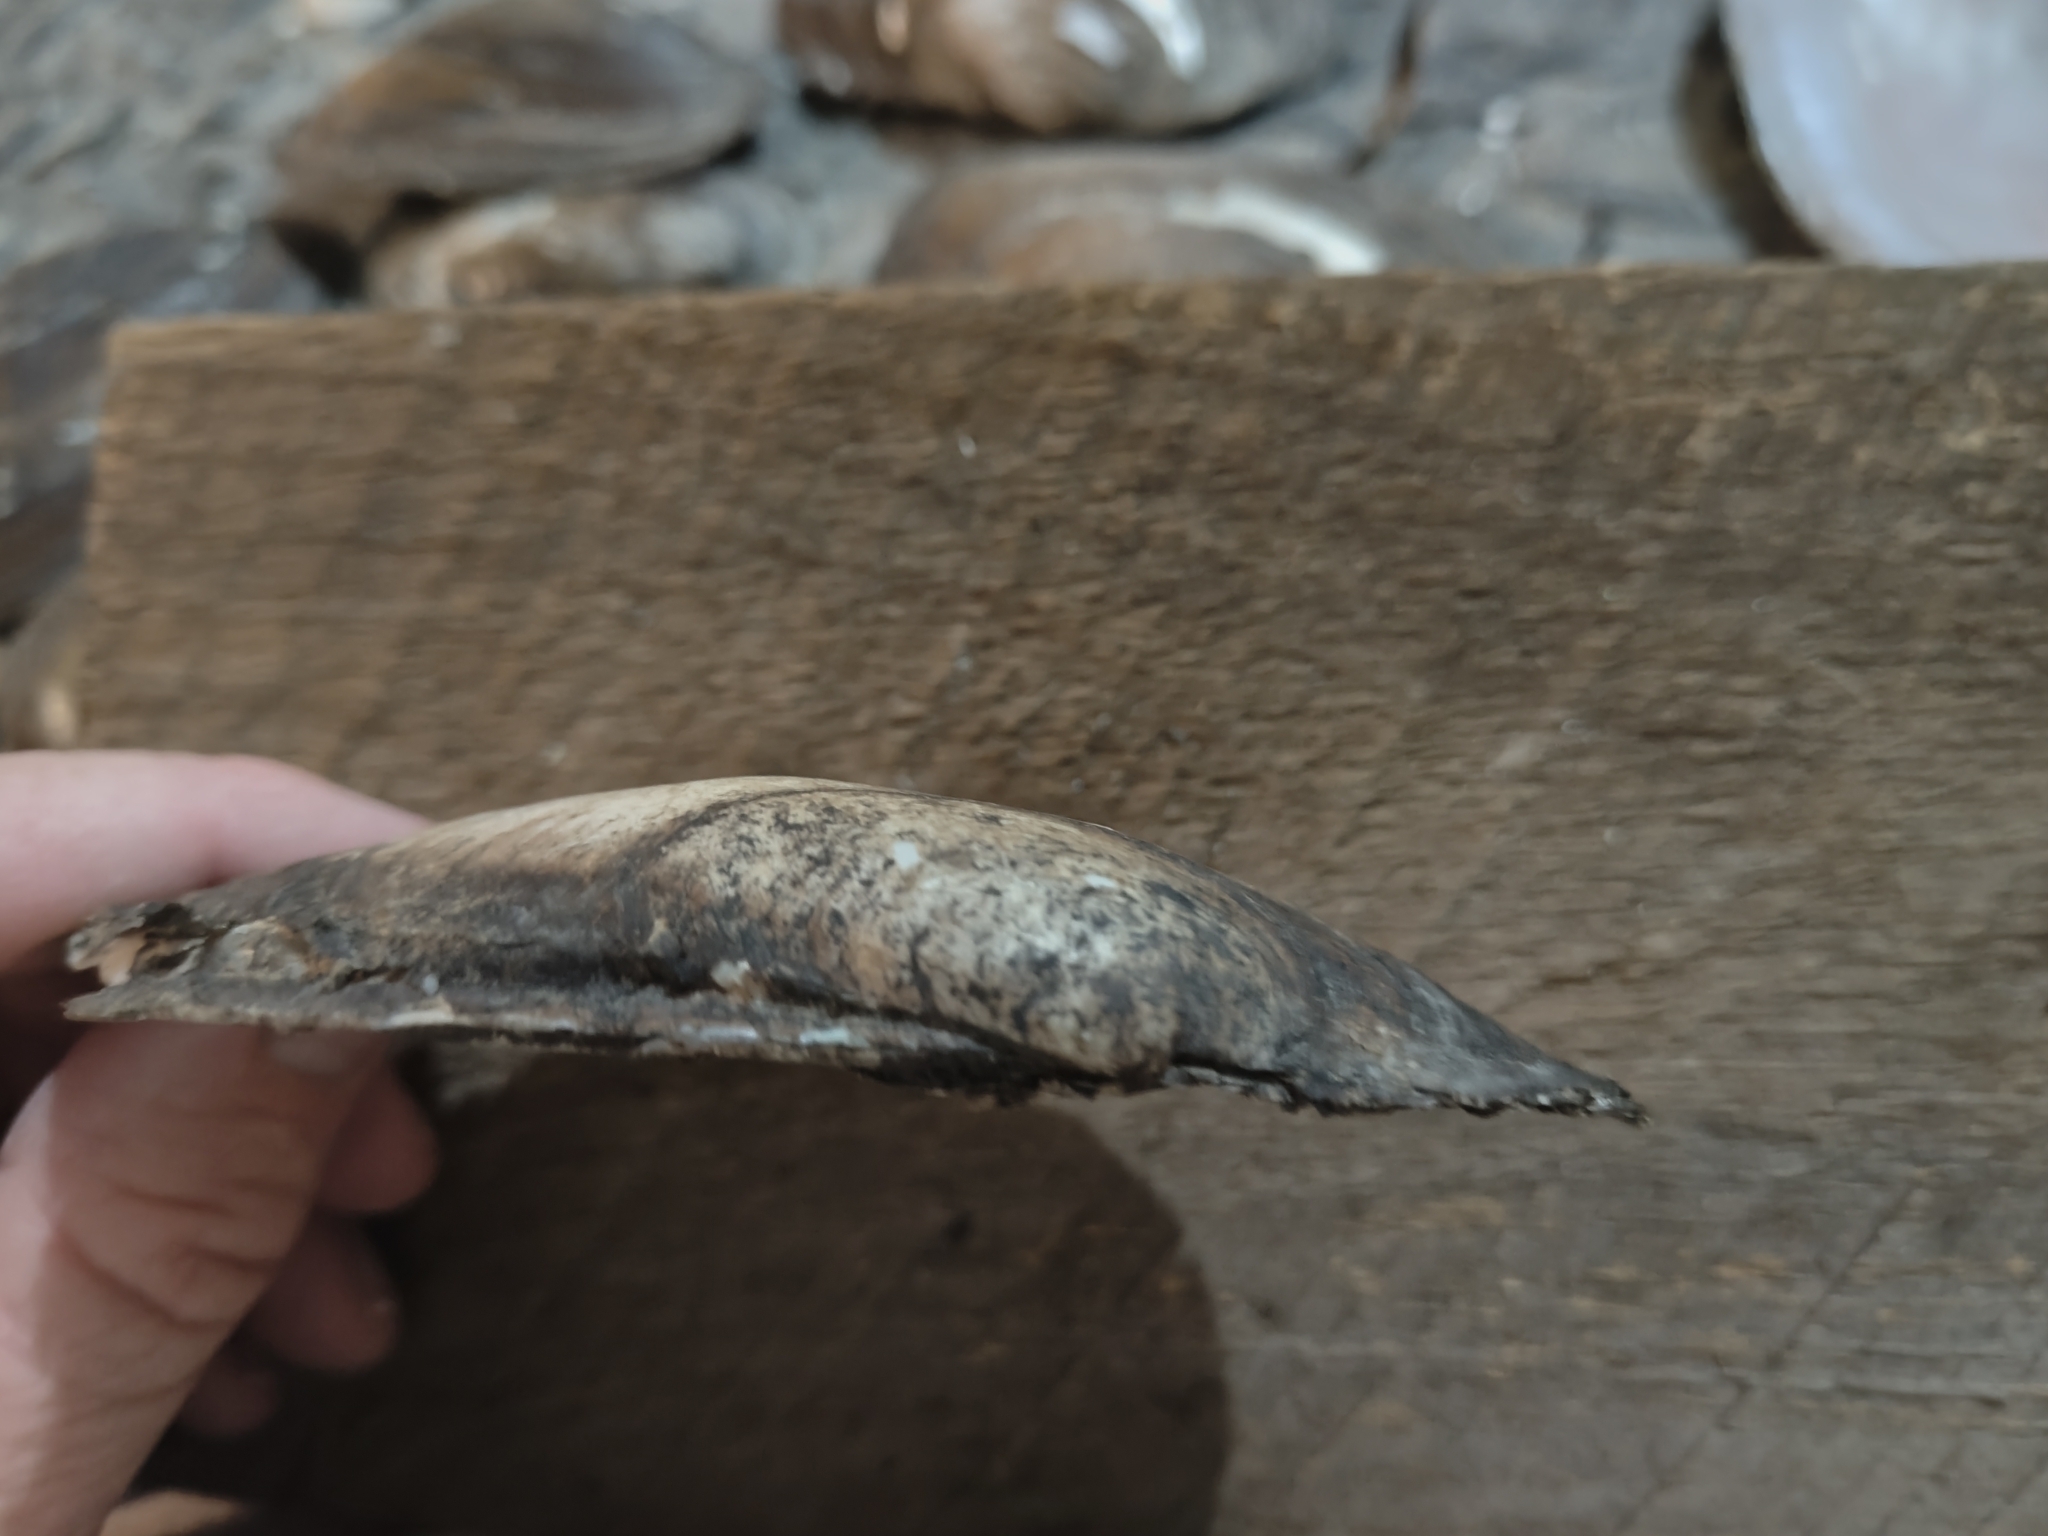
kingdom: Animalia
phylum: Mollusca
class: Bivalvia
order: Unionida
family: Unionidae
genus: Potamilus
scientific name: Potamilus fragilis
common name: Fragile papershell
